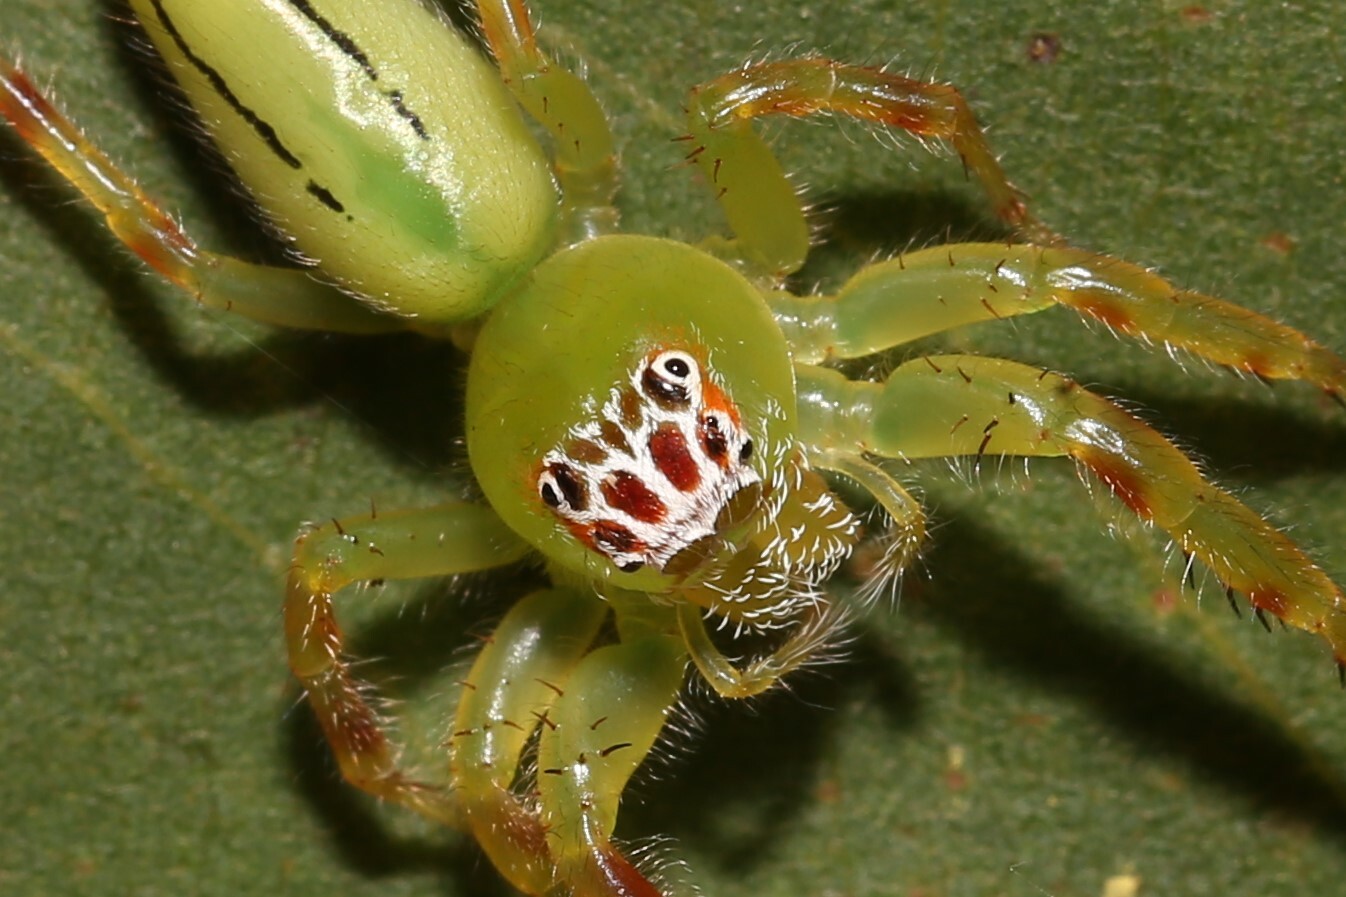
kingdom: Animalia
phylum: Arthropoda
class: Arachnida
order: Araneae
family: Salticidae
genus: Mopsus
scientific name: Mopsus mormon
